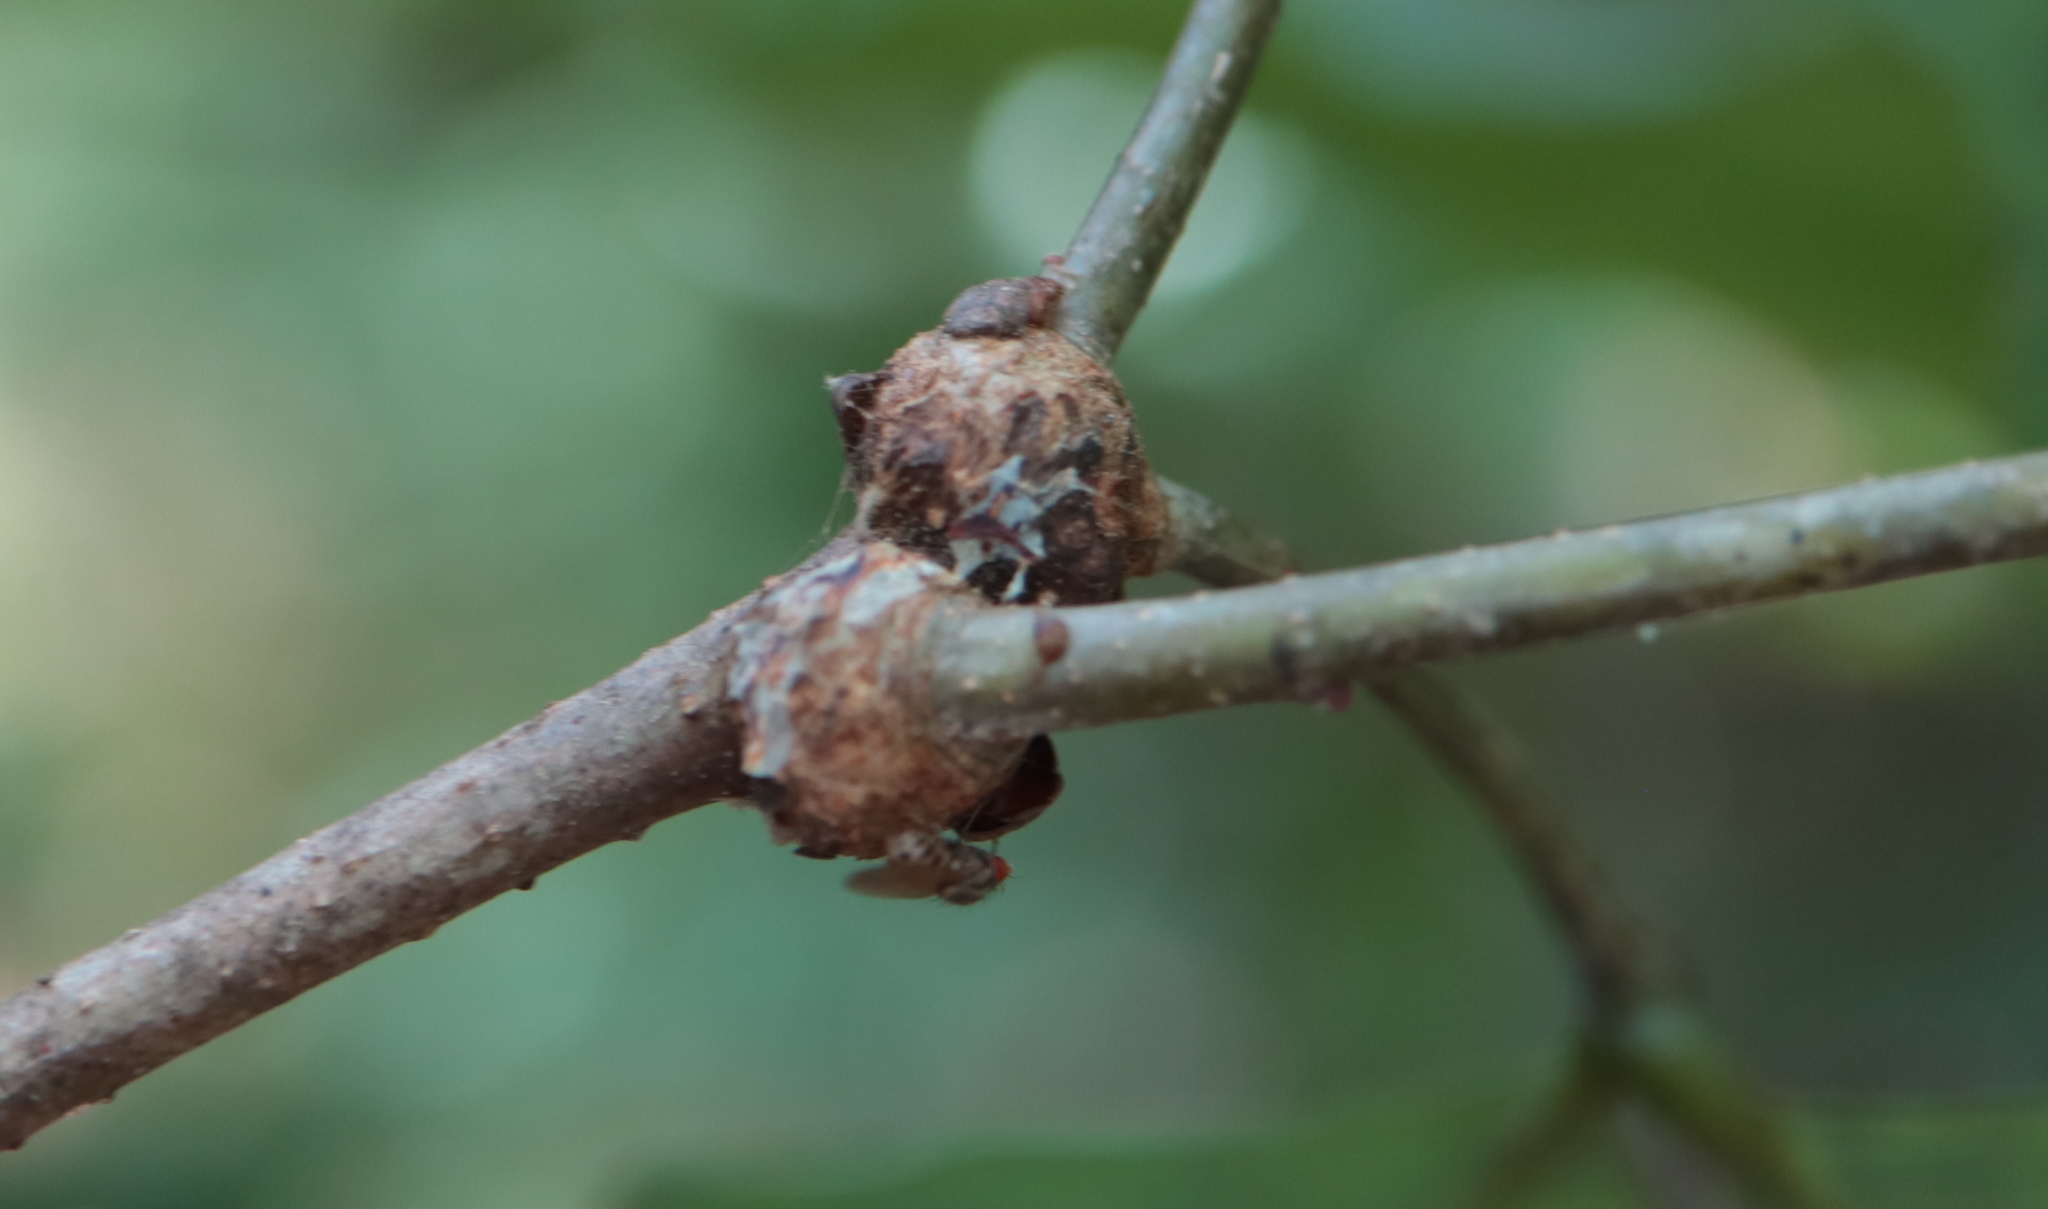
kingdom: Animalia
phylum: Arthropoda
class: Insecta
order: Hymenoptera
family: Cynipidae
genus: Loxaulus
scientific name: Loxaulus
